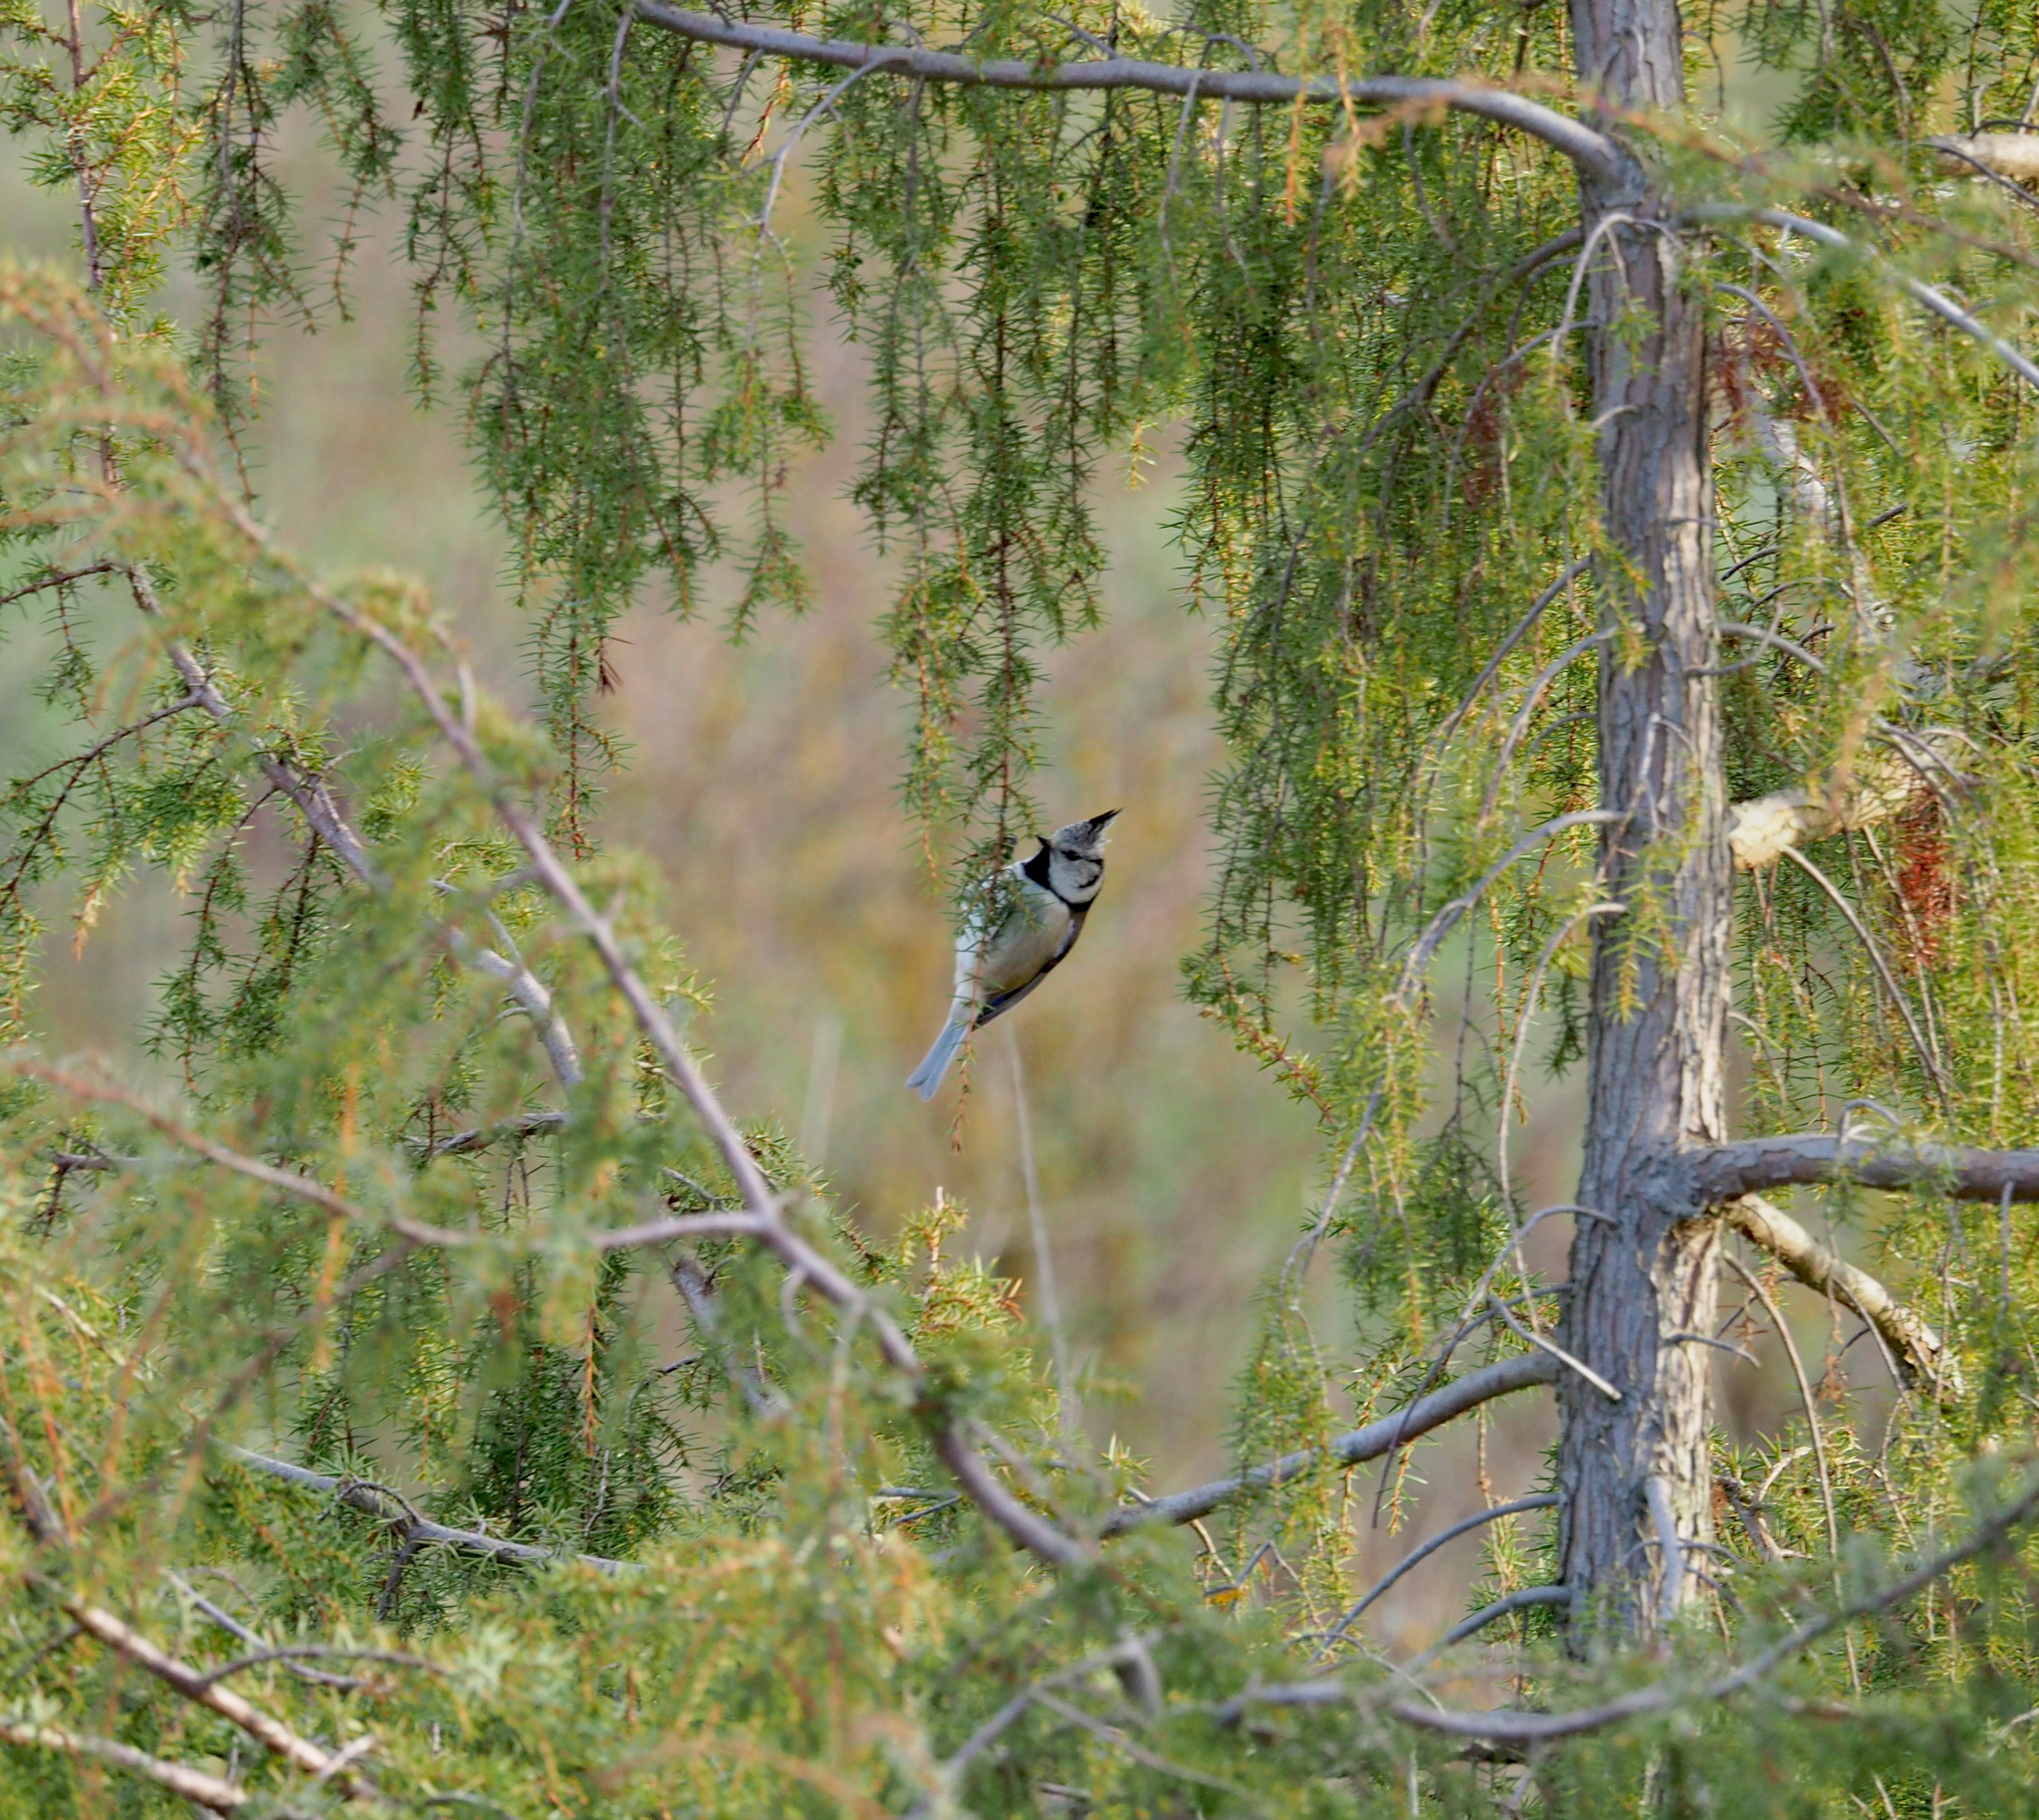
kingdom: Animalia
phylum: Chordata
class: Aves
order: Passeriformes
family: Paridae
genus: Lophophanes
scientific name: Lophophanes cristatus
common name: European crested tit
